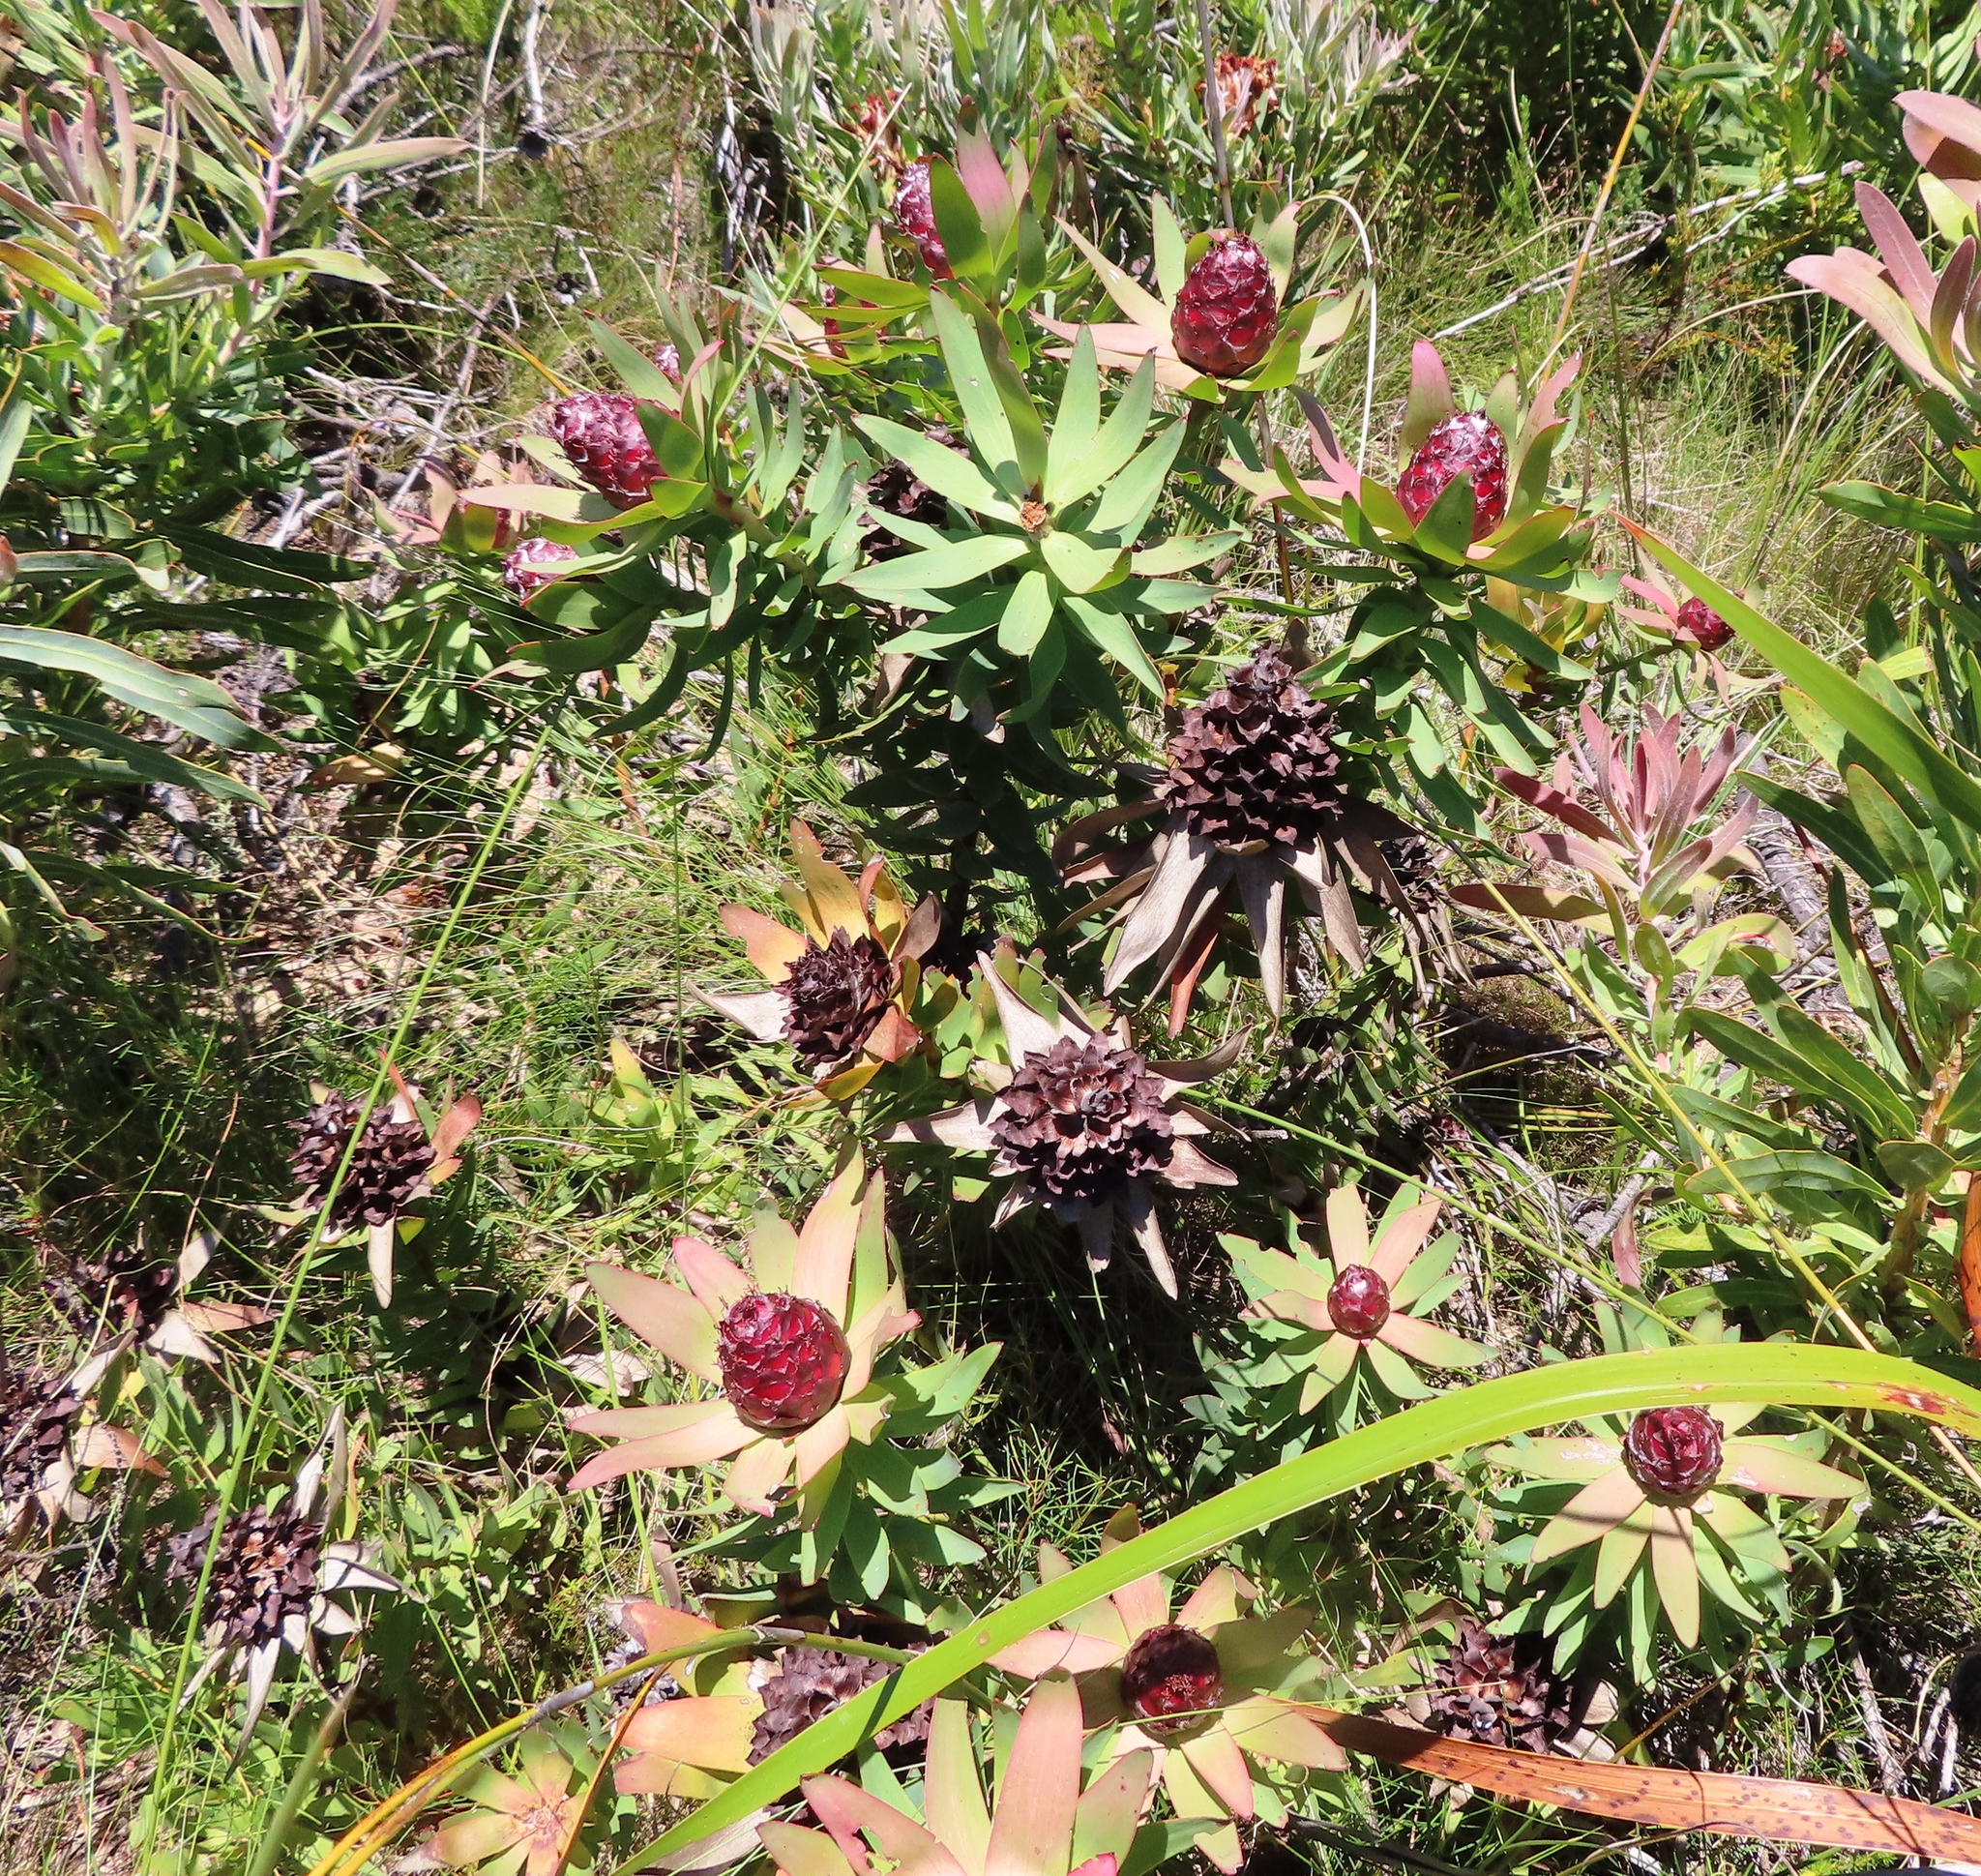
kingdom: Plantae
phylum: Tracheophyta
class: Magnoliopsida
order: Proteales
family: Proteaceae
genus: Leucadendron
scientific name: Leucadendron sessile
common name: Western sunbush
